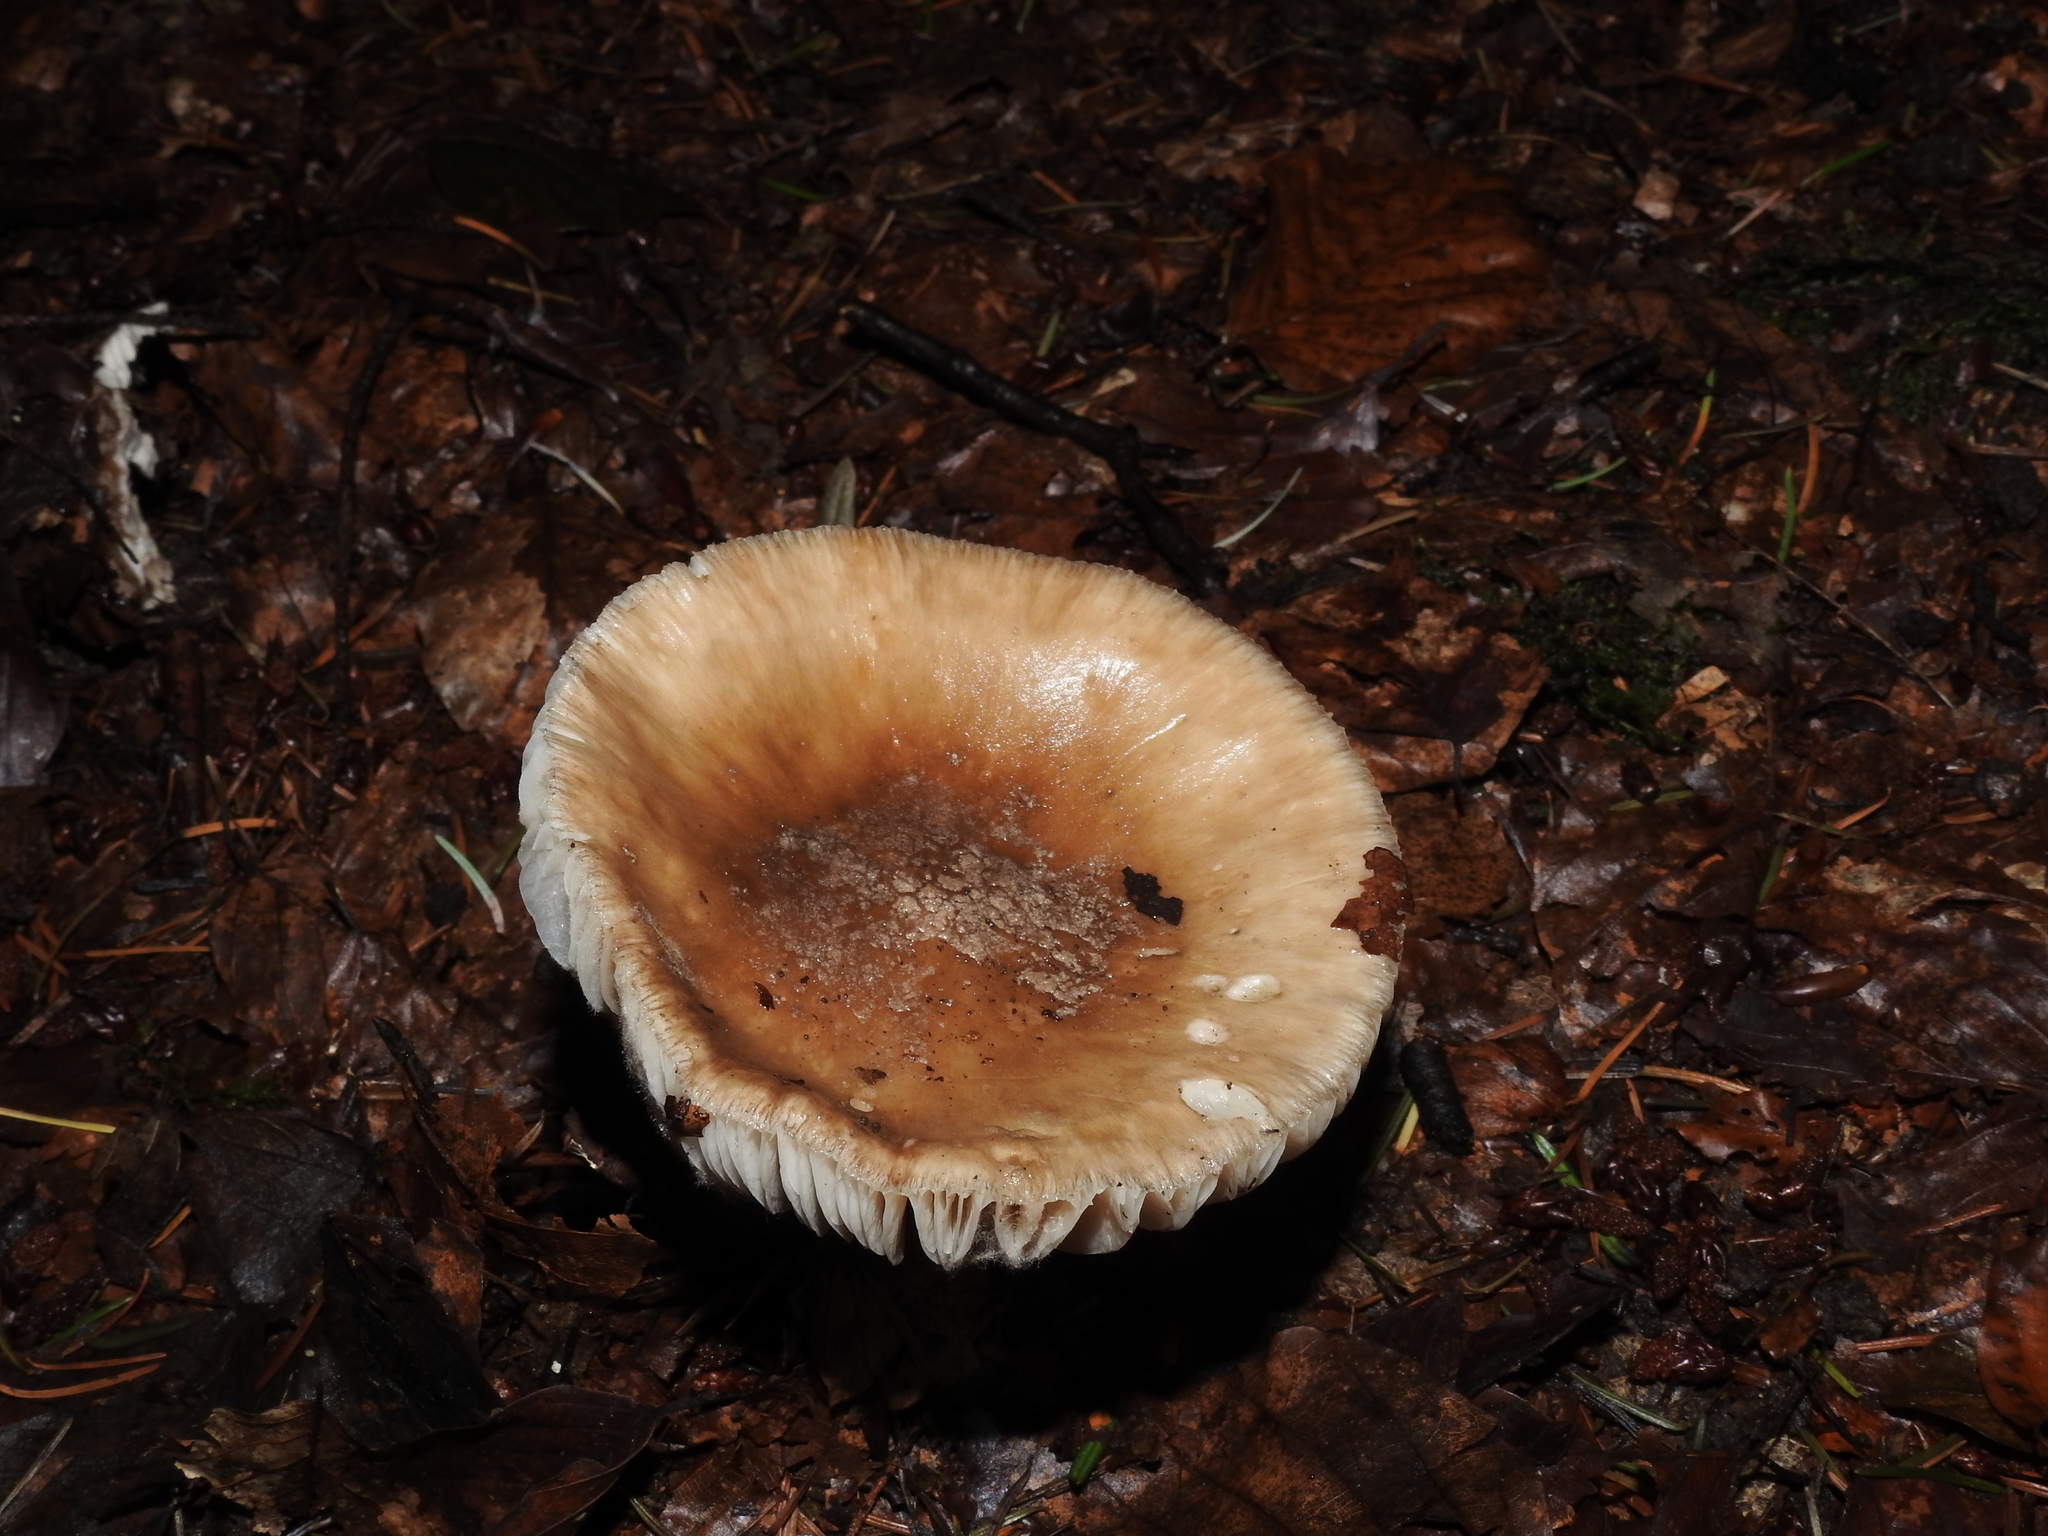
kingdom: Fungi
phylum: Basidiomycota
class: Agaricomycetes
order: Agaricales
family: Amanitaceae
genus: Amanita
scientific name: Amanita rubescens
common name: Blusher
